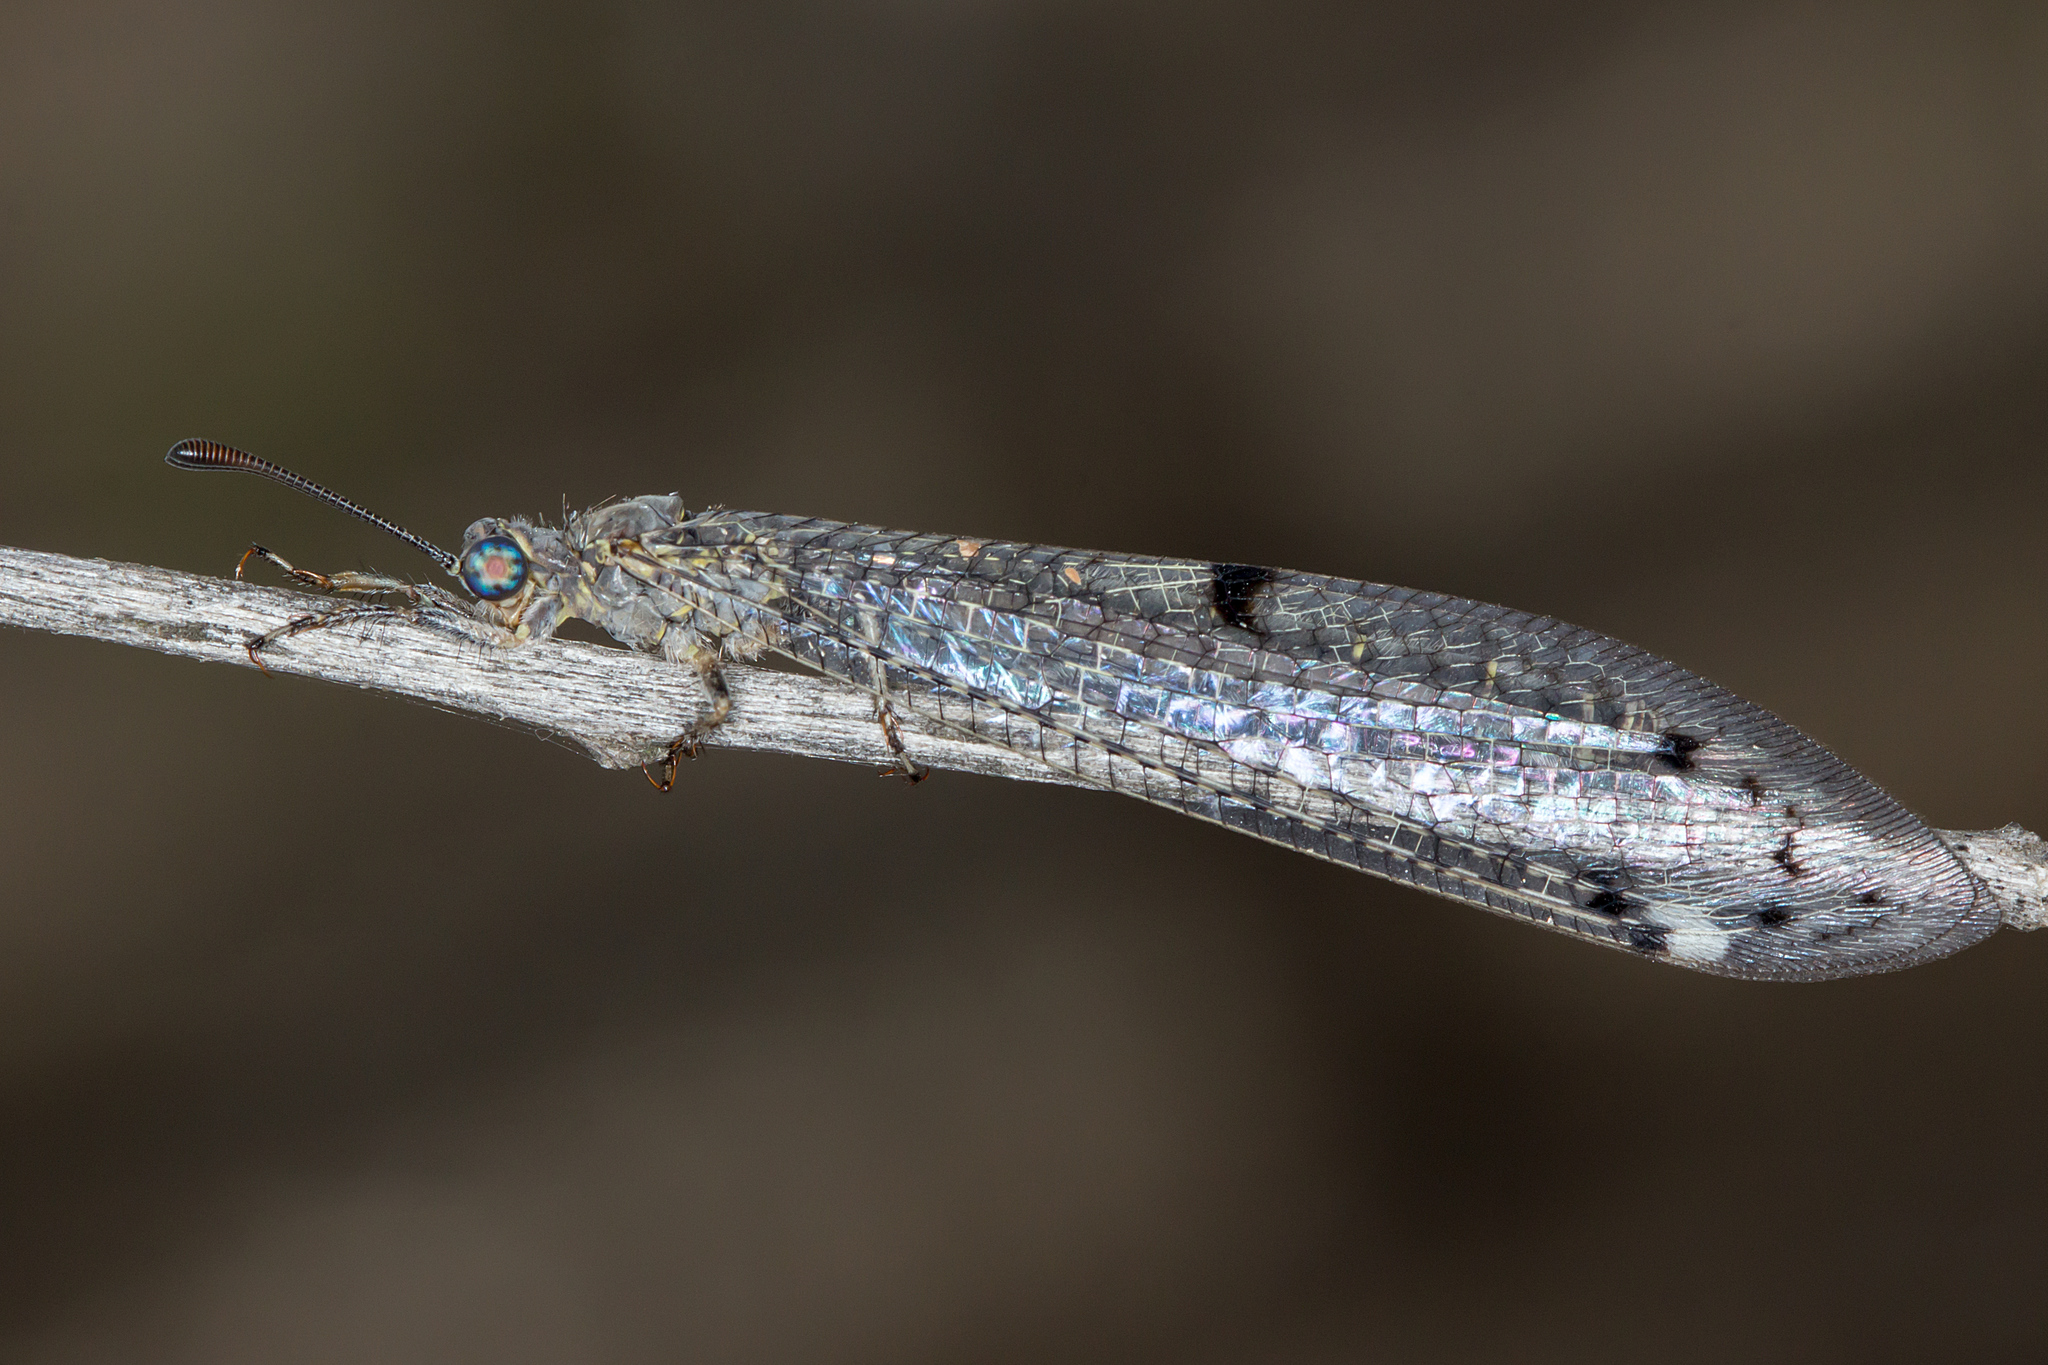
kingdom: Animalia
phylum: Arthropoda
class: Insecta
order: Neuroptera
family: Myrmeleontidae
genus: Bandidus
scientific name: Bandidus canifrons
